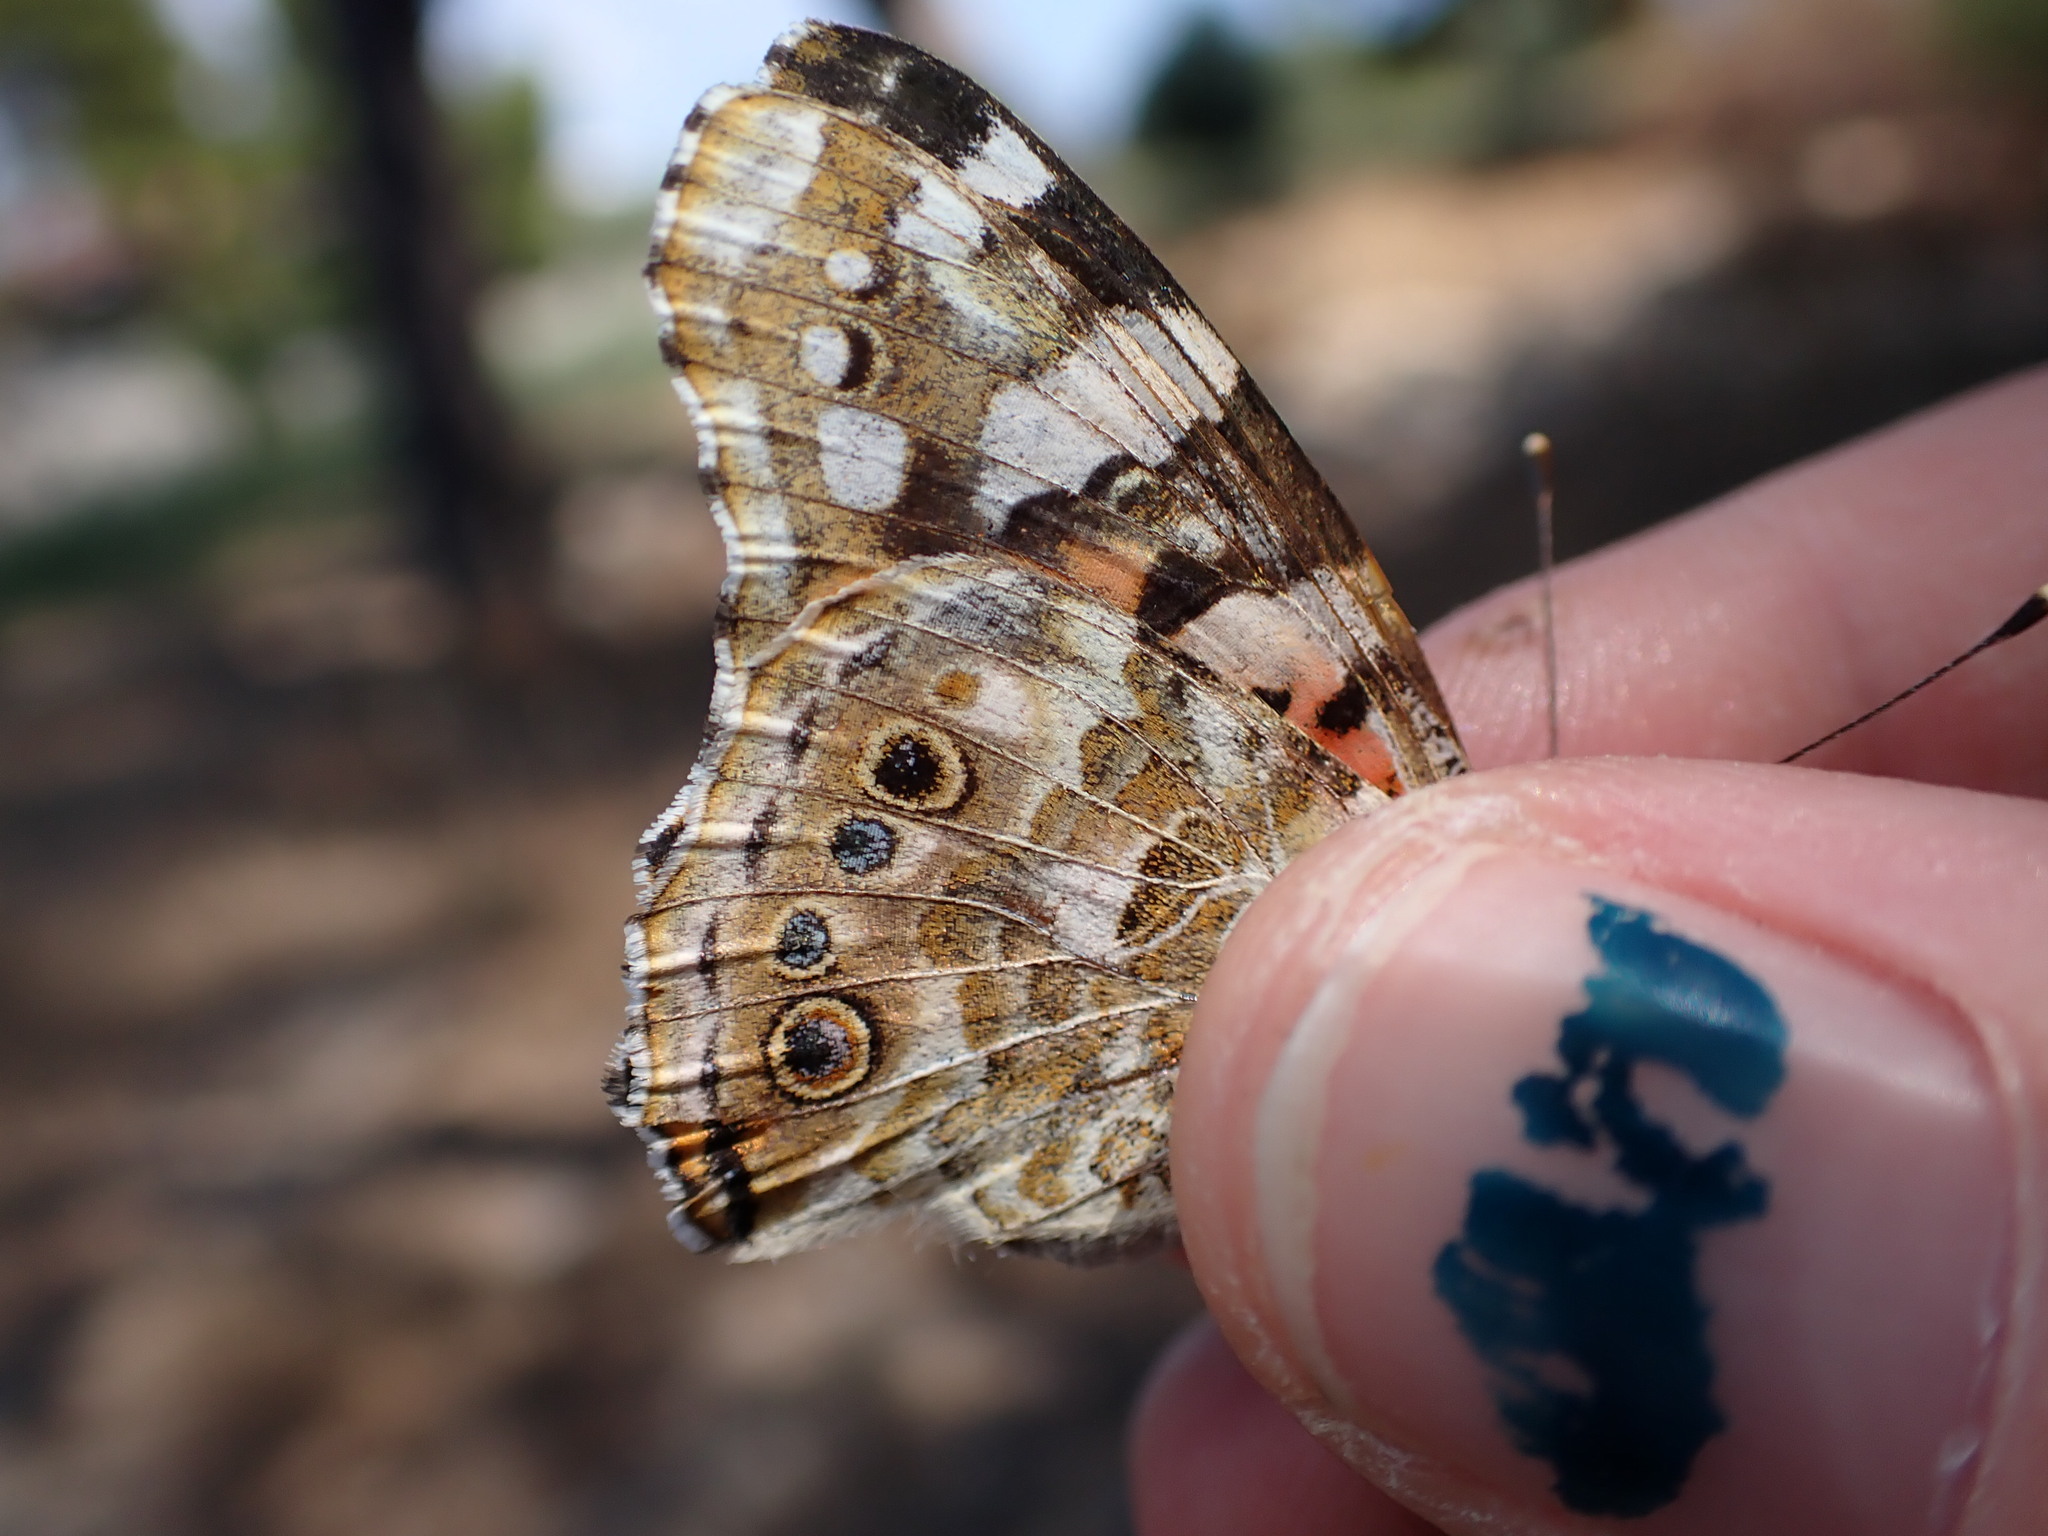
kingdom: Animalia
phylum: Arthropoda
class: Insecta
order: Lepidoptera
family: Nymphalidae
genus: Vanessa
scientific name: Vanessa cardui
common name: Painted lady
